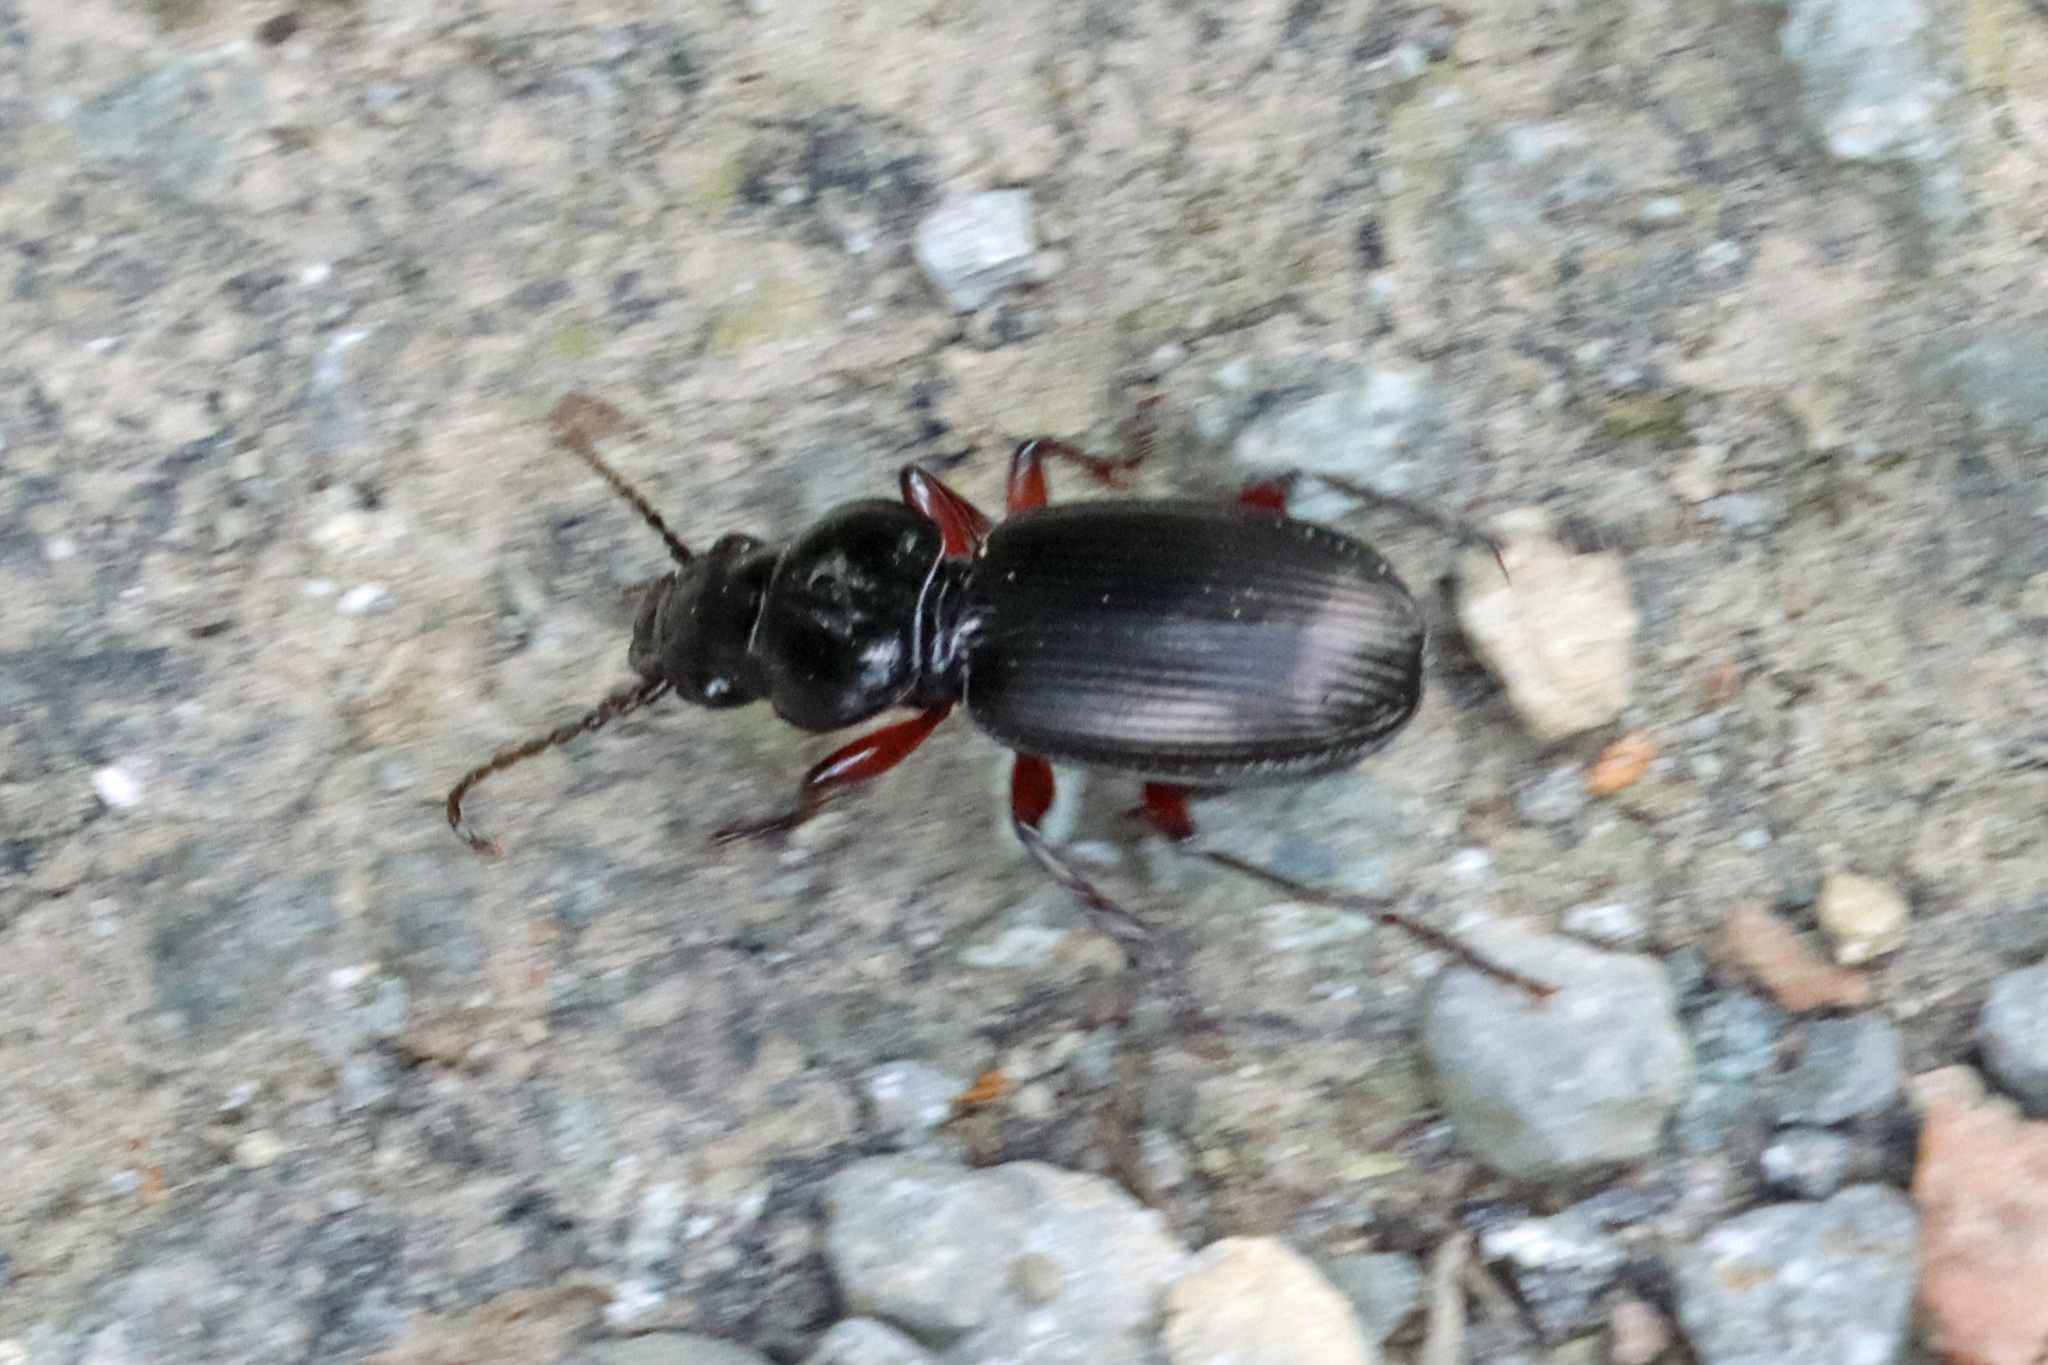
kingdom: Animalia
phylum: Arthropoda
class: Insecta
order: Coleoptera
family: Carabidae
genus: Pterostichus
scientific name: Pterostichus madidus
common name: Black clock
